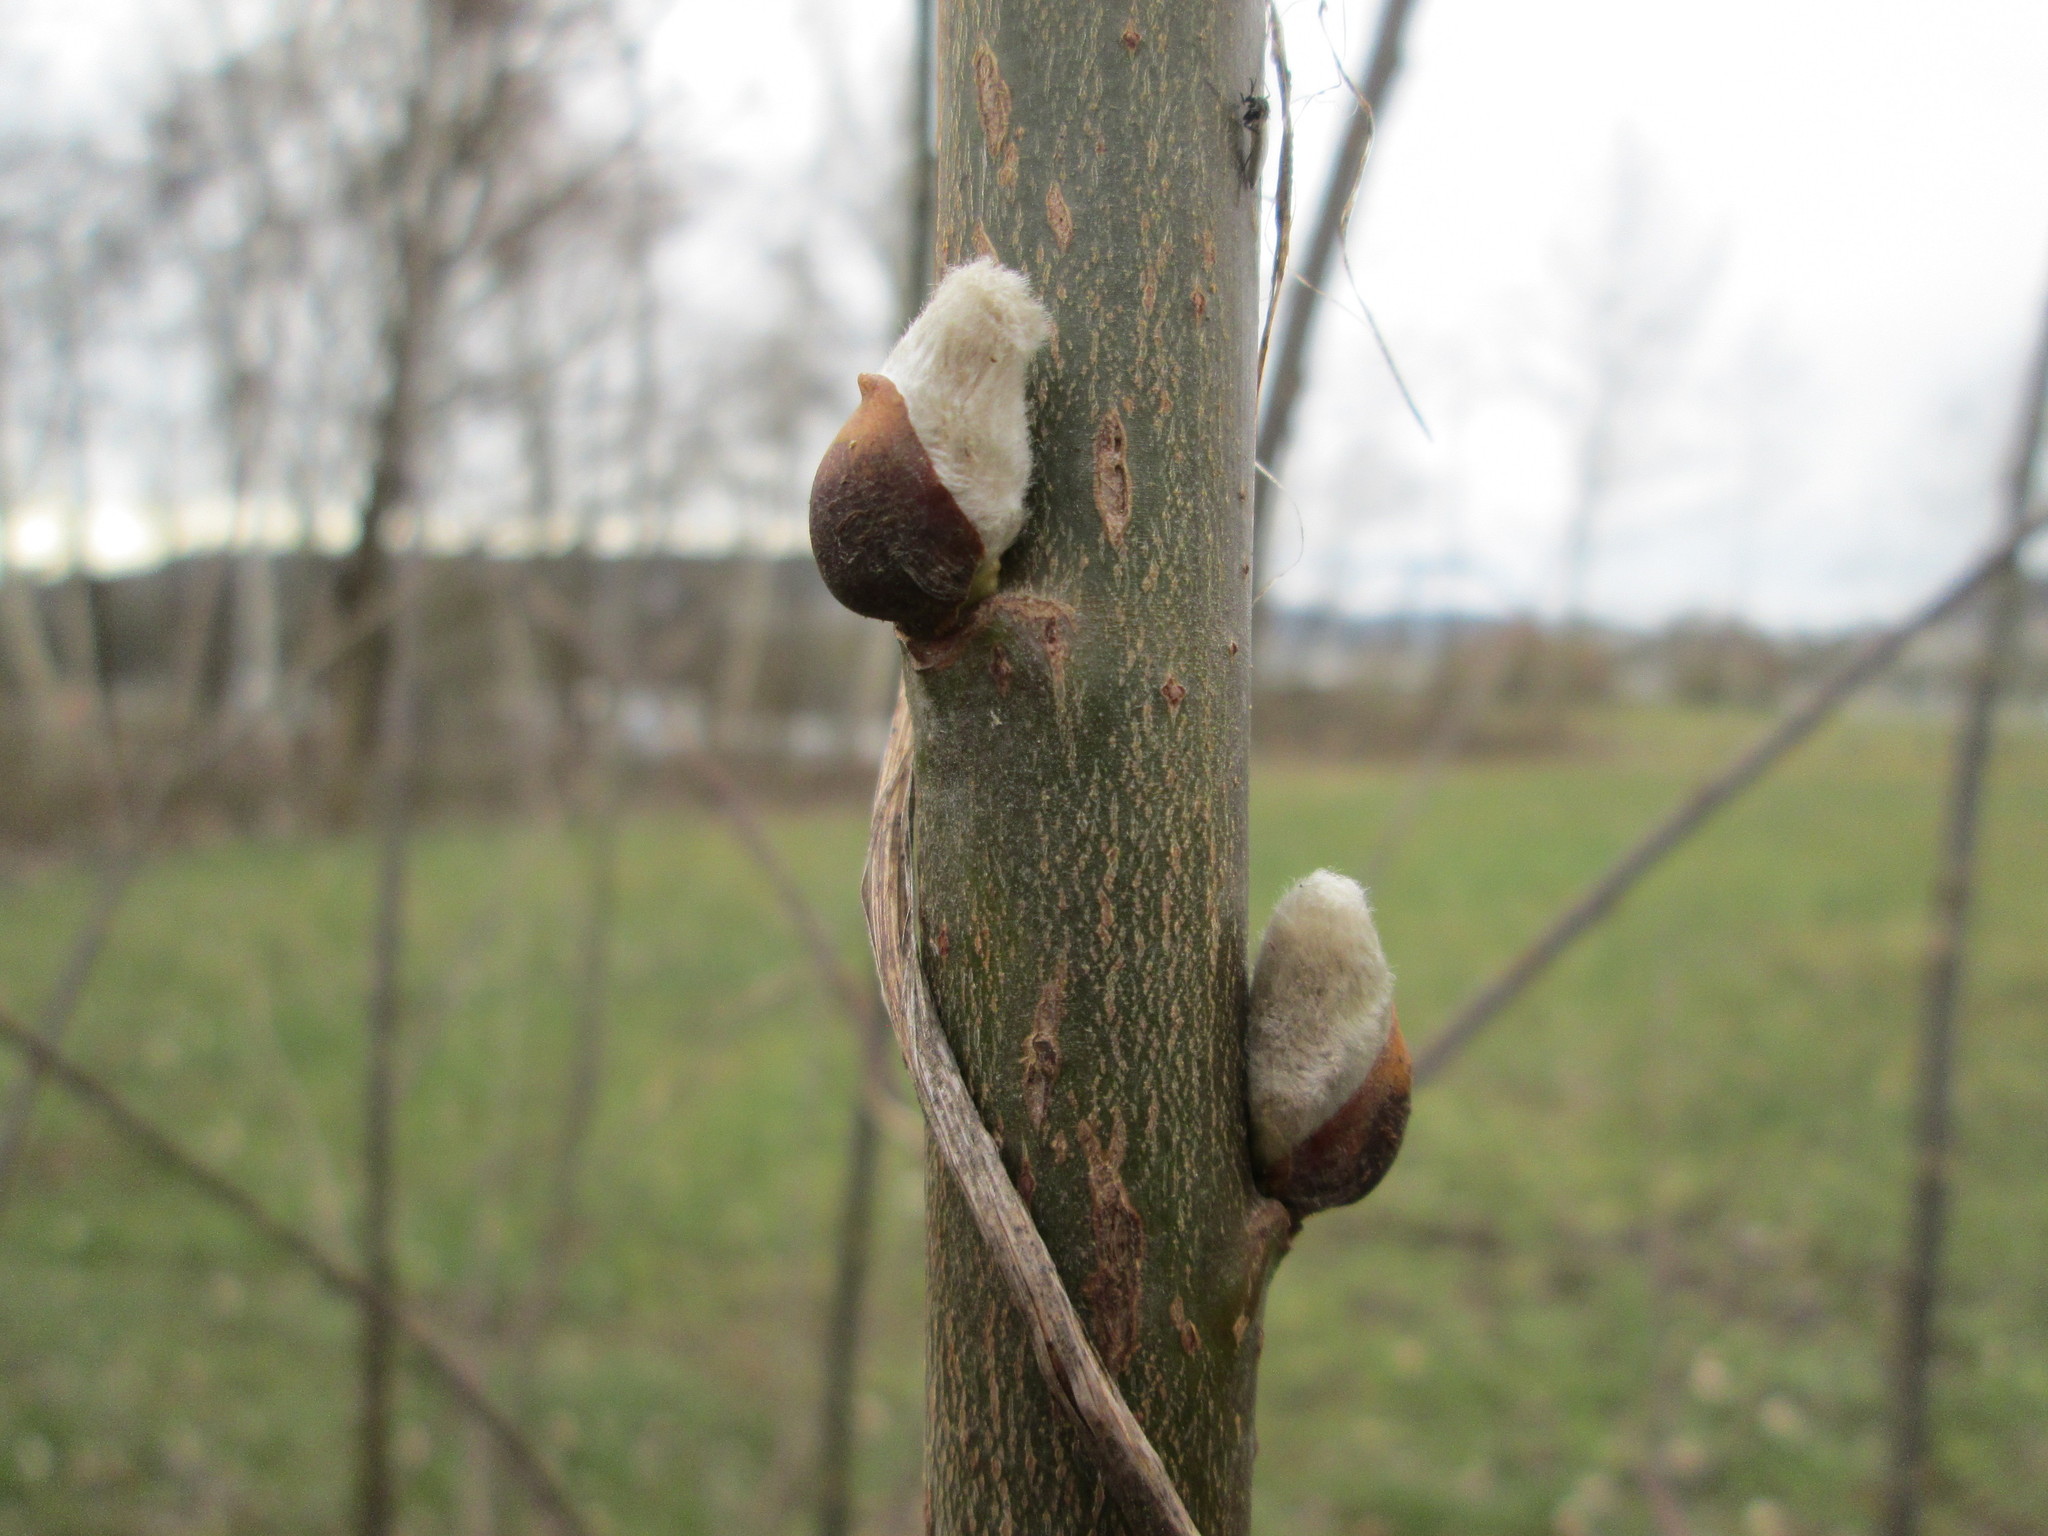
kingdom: Plantae
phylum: Tracheophyta
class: Magnoliopsida
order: Malpighiales
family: Salicaceae
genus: Salix
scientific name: Salix caprea
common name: Goat willow
